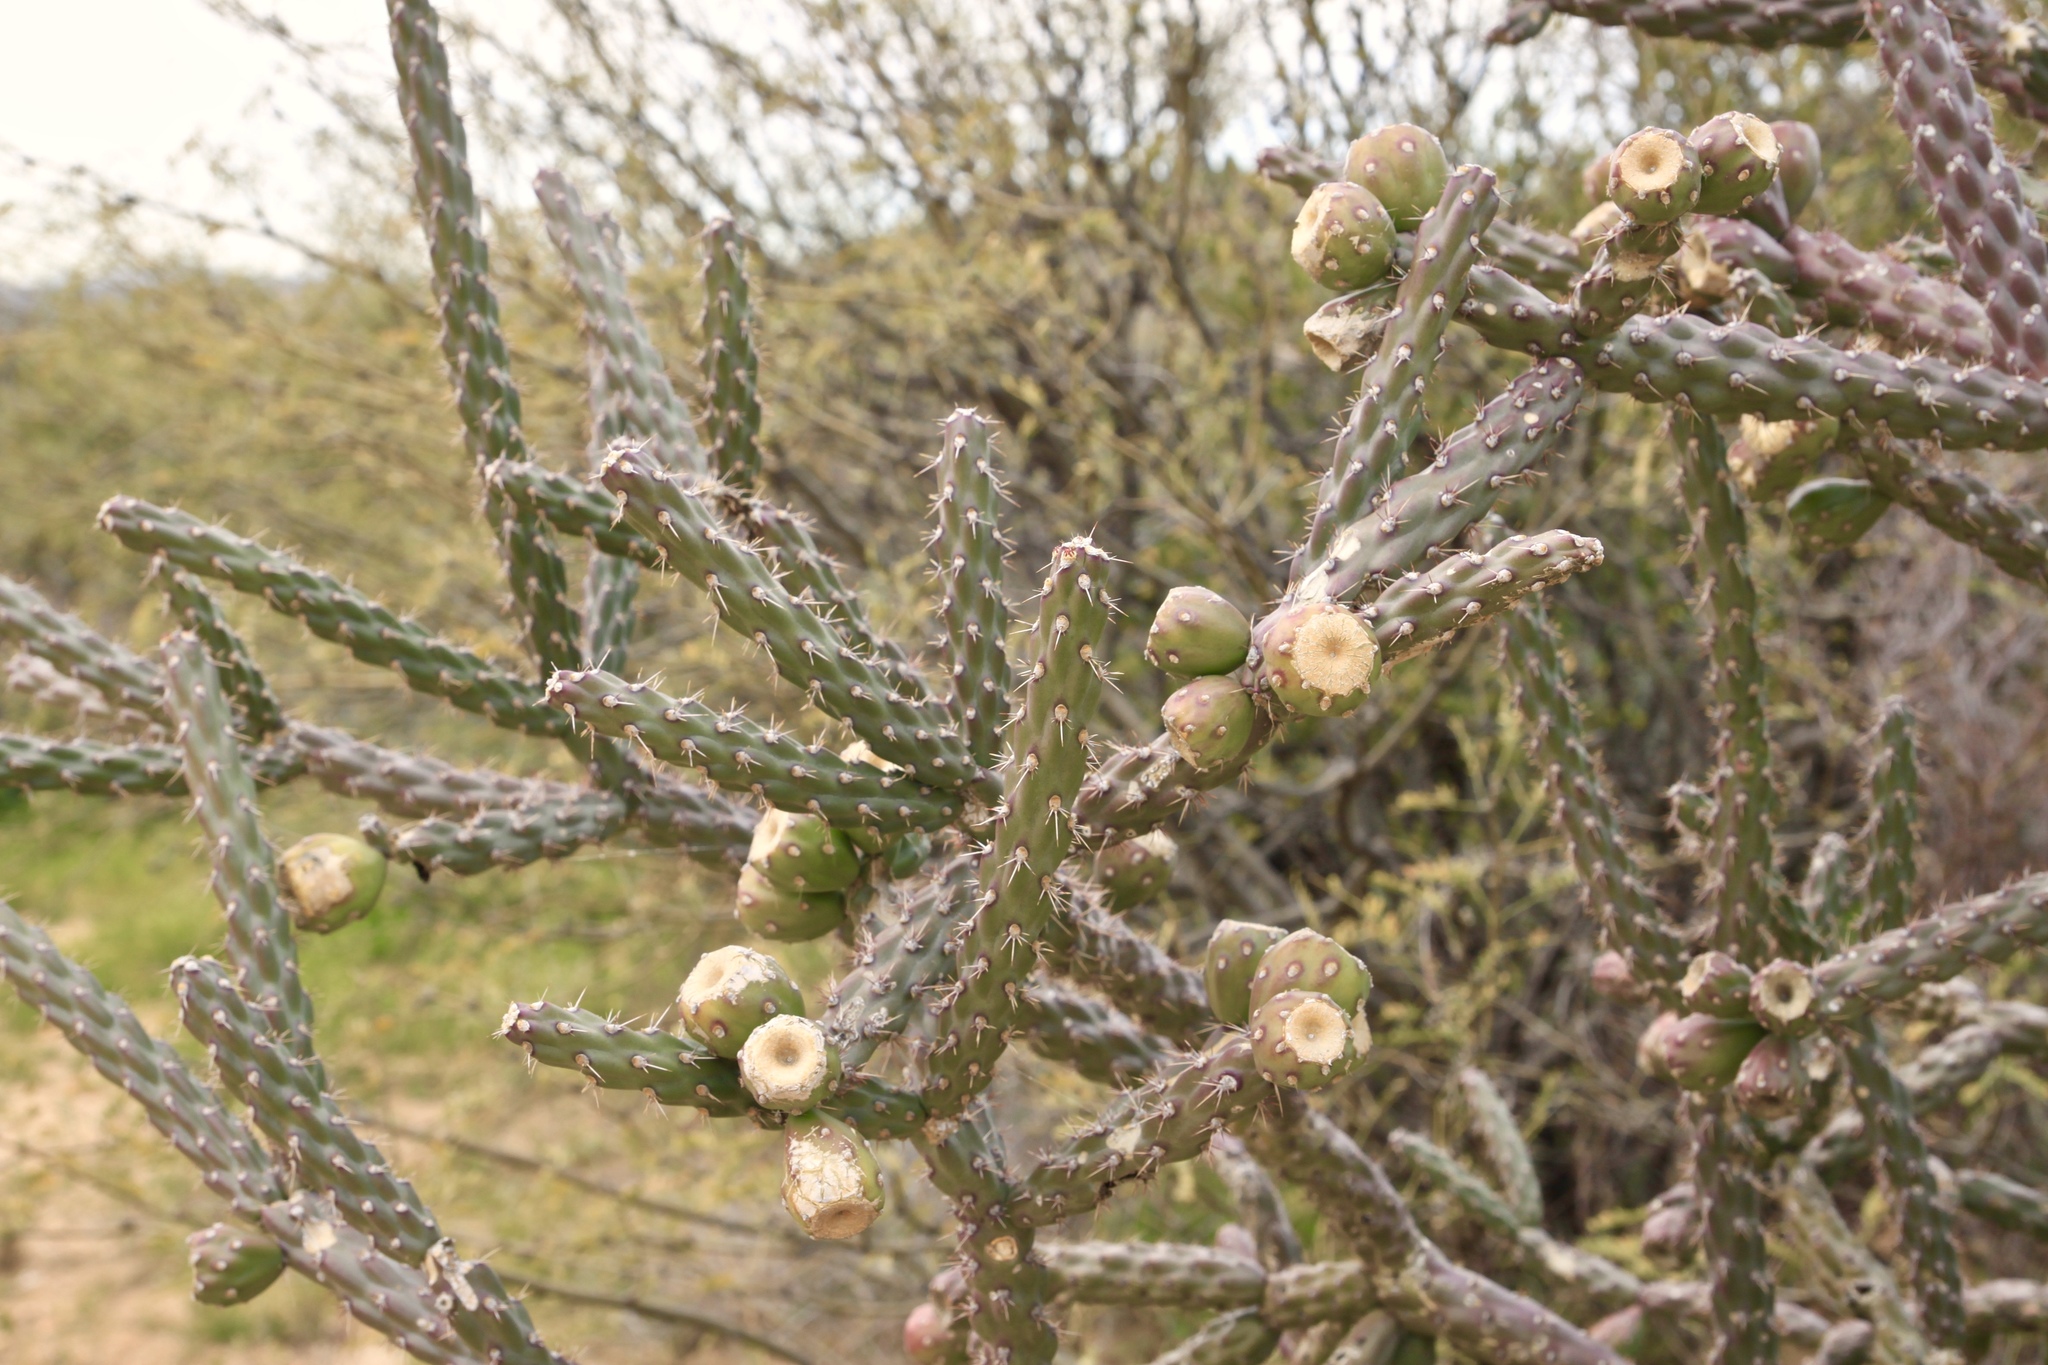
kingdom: Plantae
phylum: Tracheophyta
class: Magnoliopsida
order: Caryophyllales
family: Cactaceae
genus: Cylindropuntia
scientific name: Cylindropuntia thurberi
